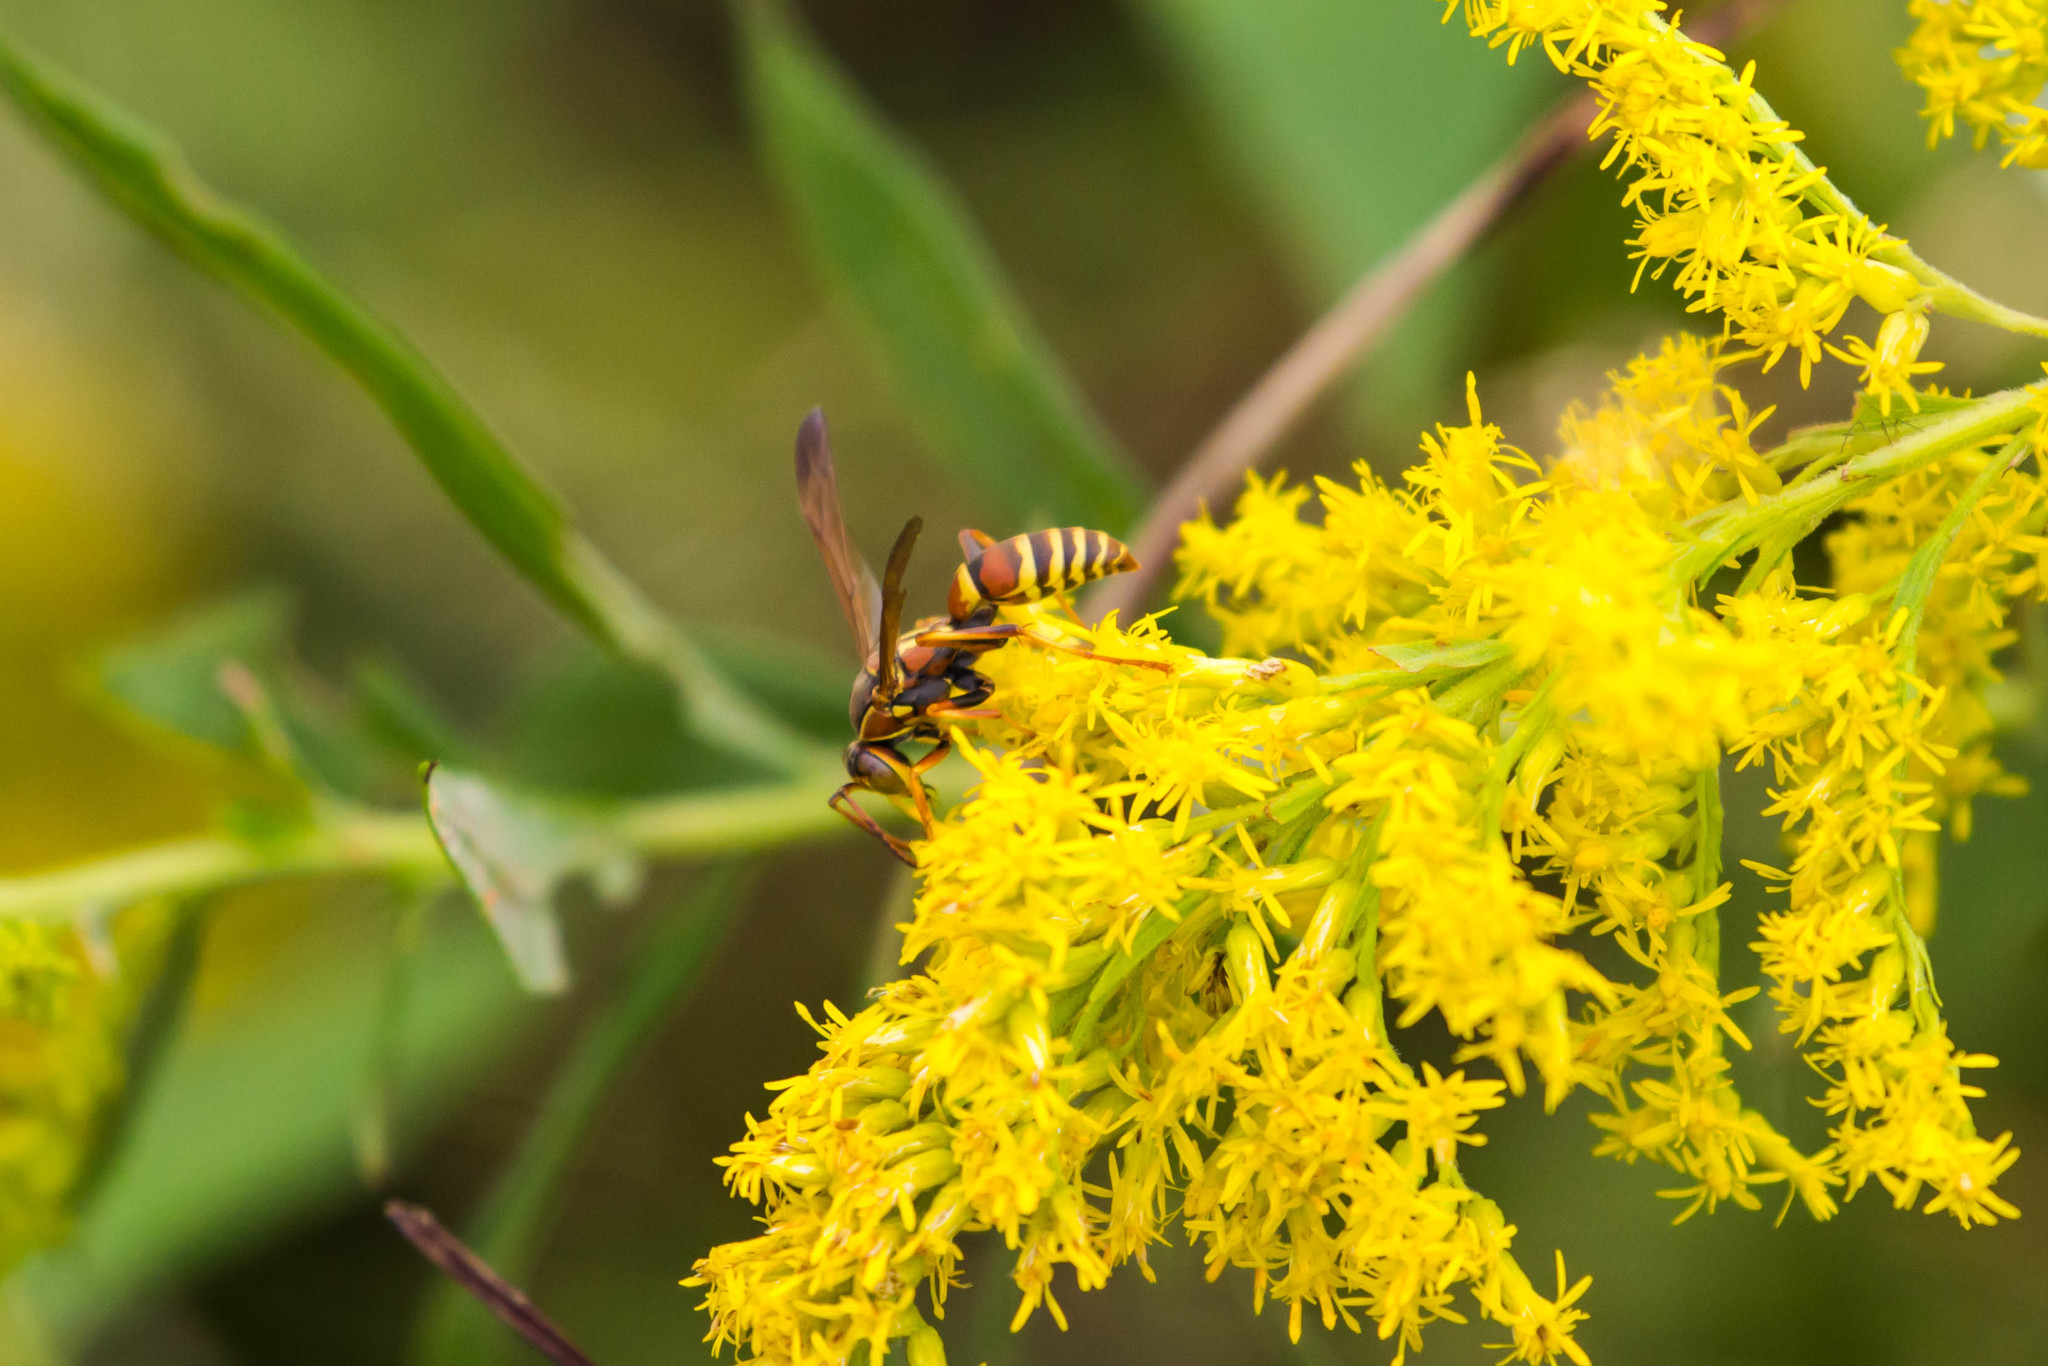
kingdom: Animalia
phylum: Arthropoda
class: Insecta
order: Hymenoptera
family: Eumenidae
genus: Polistes
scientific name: Polistes dorsalis
